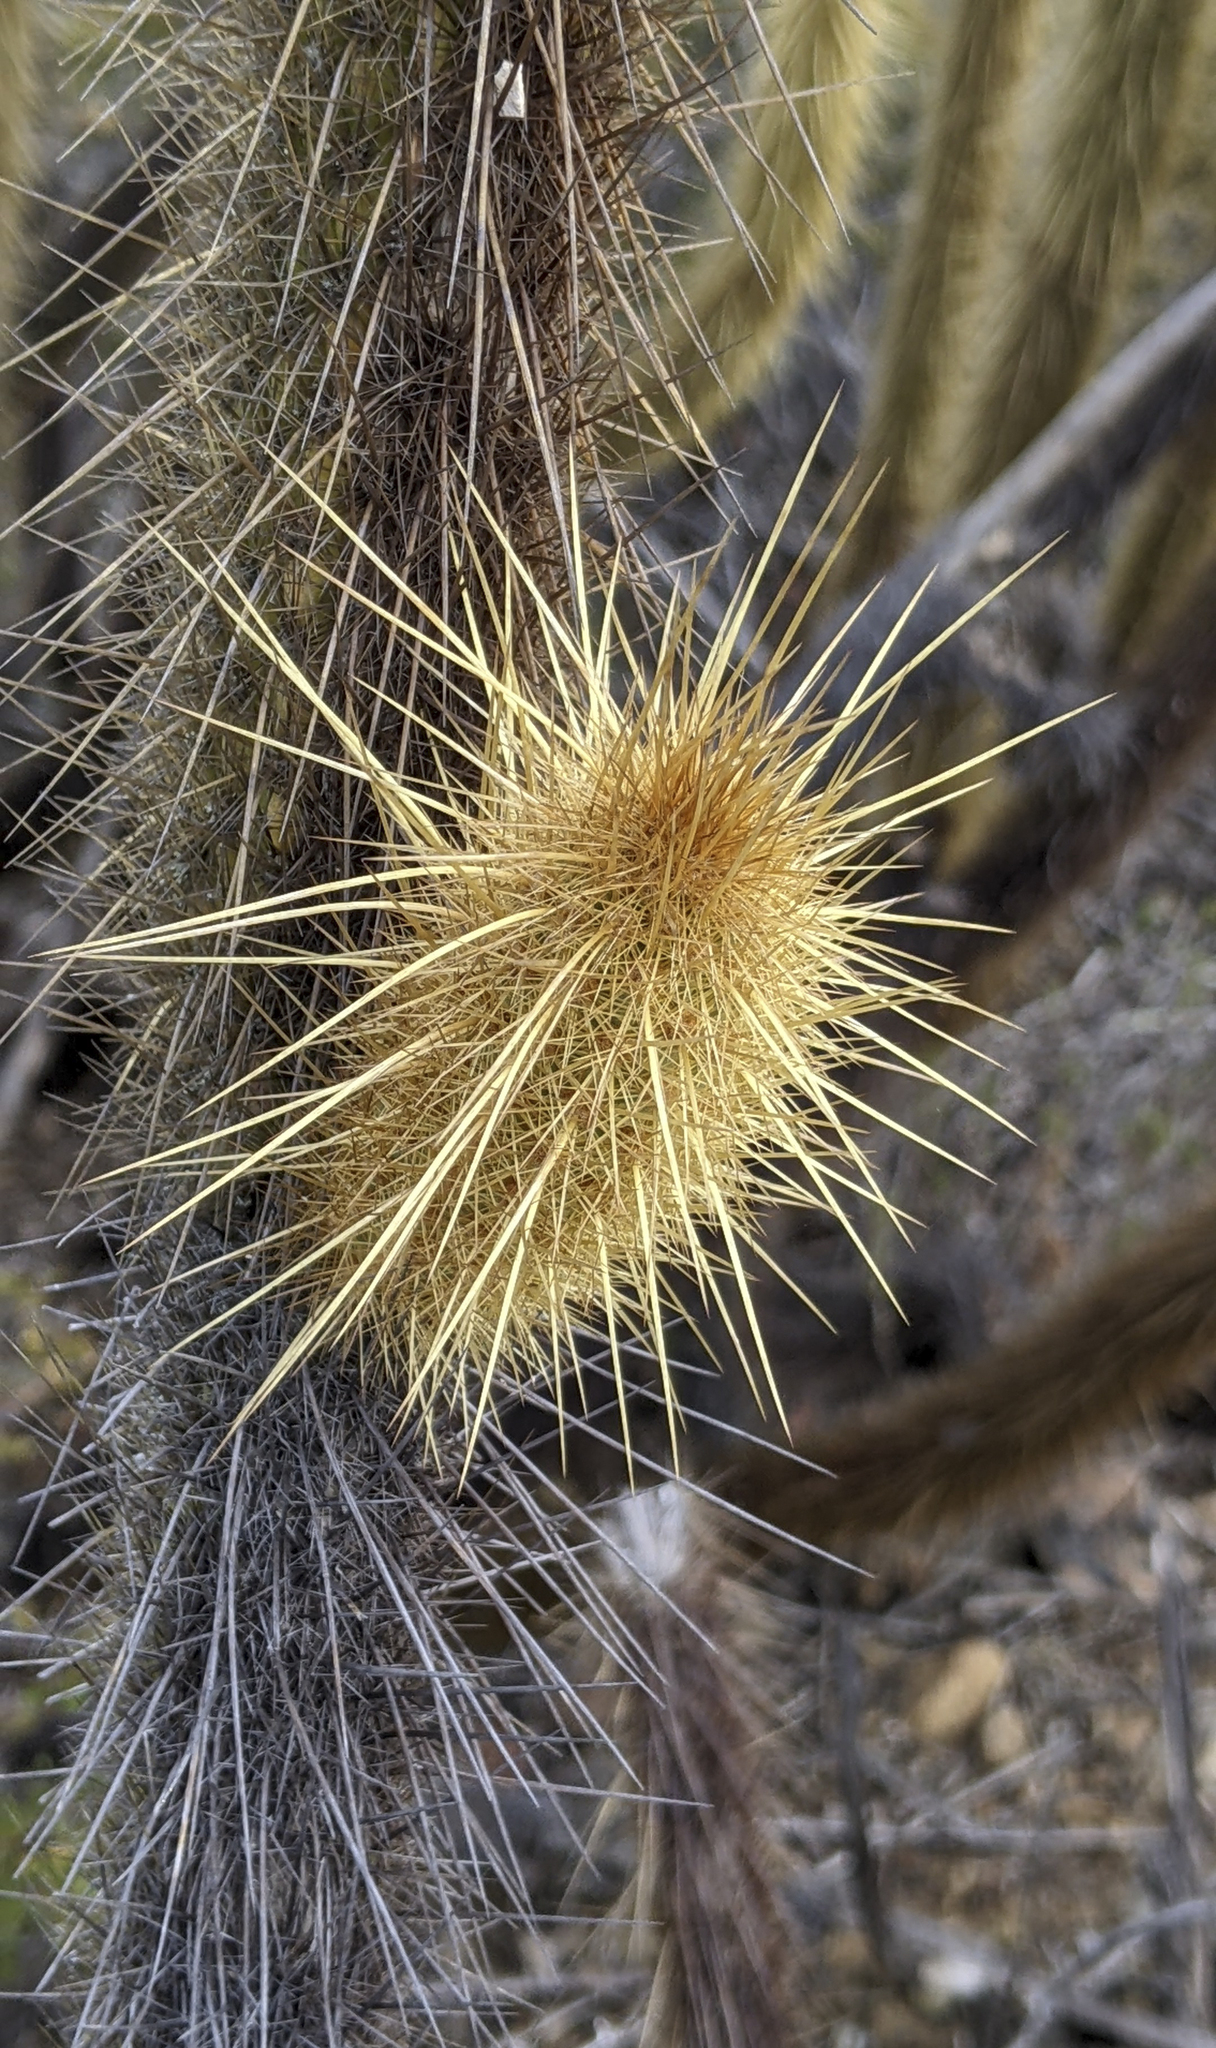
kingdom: Plantae
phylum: Tracheophyta
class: Magnoliopsida
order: Caryophyllales
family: Cactaceae
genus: Bergerocactus
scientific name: Bergerocactus emoryi
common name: Golden snakecactus
